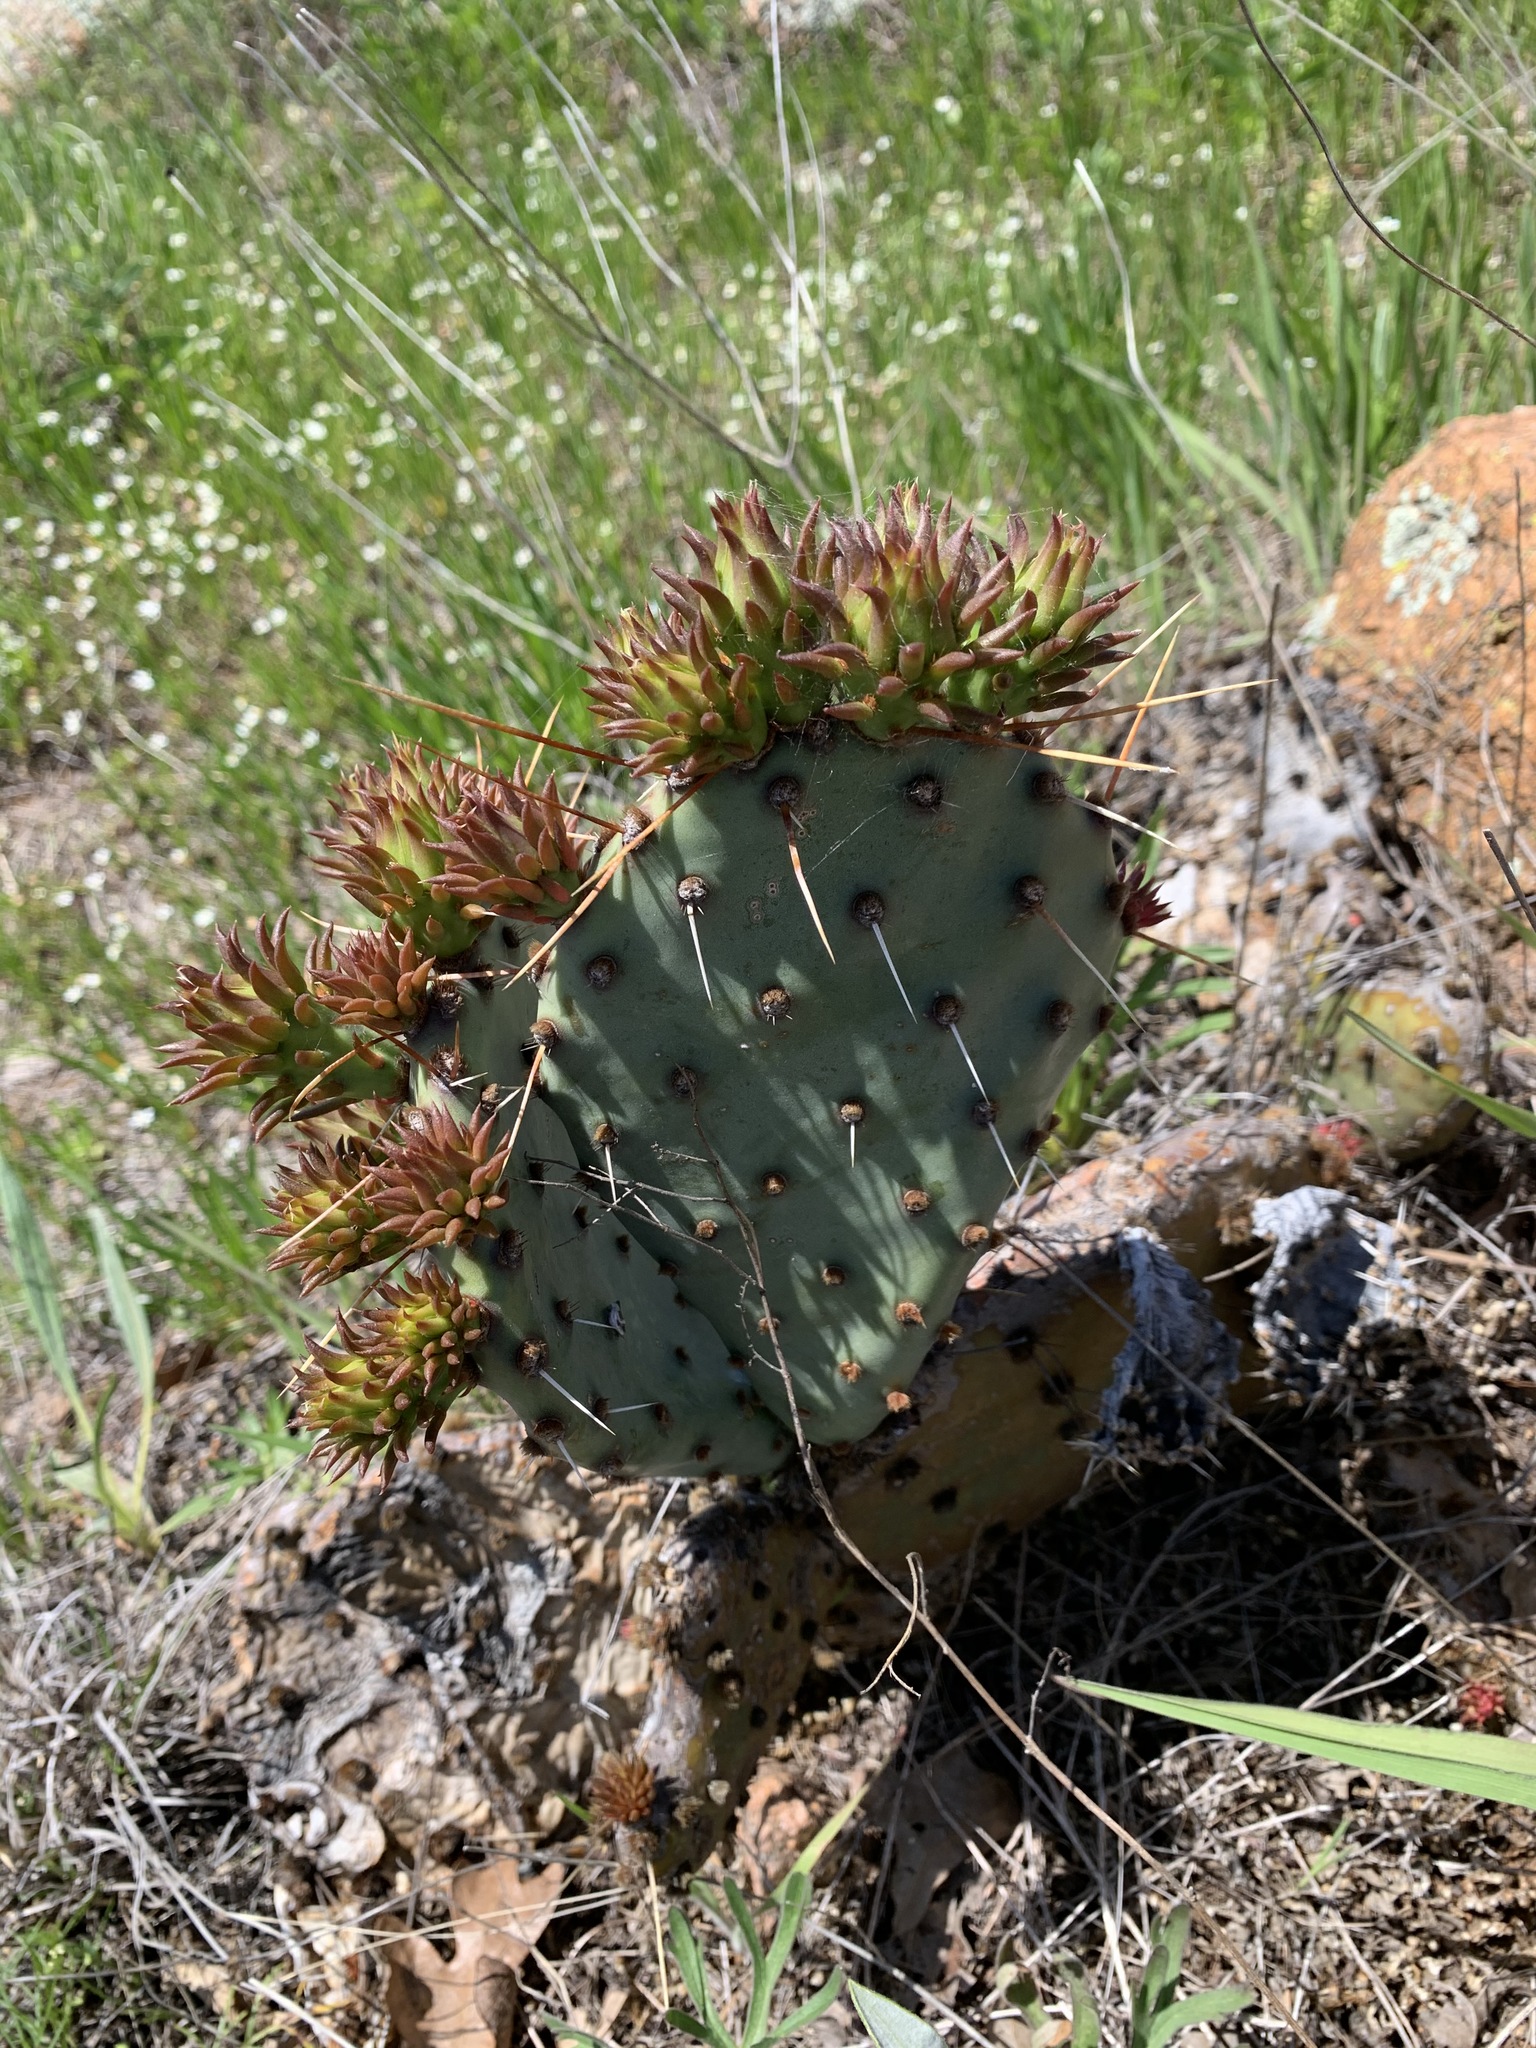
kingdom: Plantae
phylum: Tracheophyta
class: Magnoliopsida
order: Caryophyllales
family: Cactaceae
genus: Opuntia
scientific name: Opuntia phaeacantha
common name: New mexico prickly-pear
